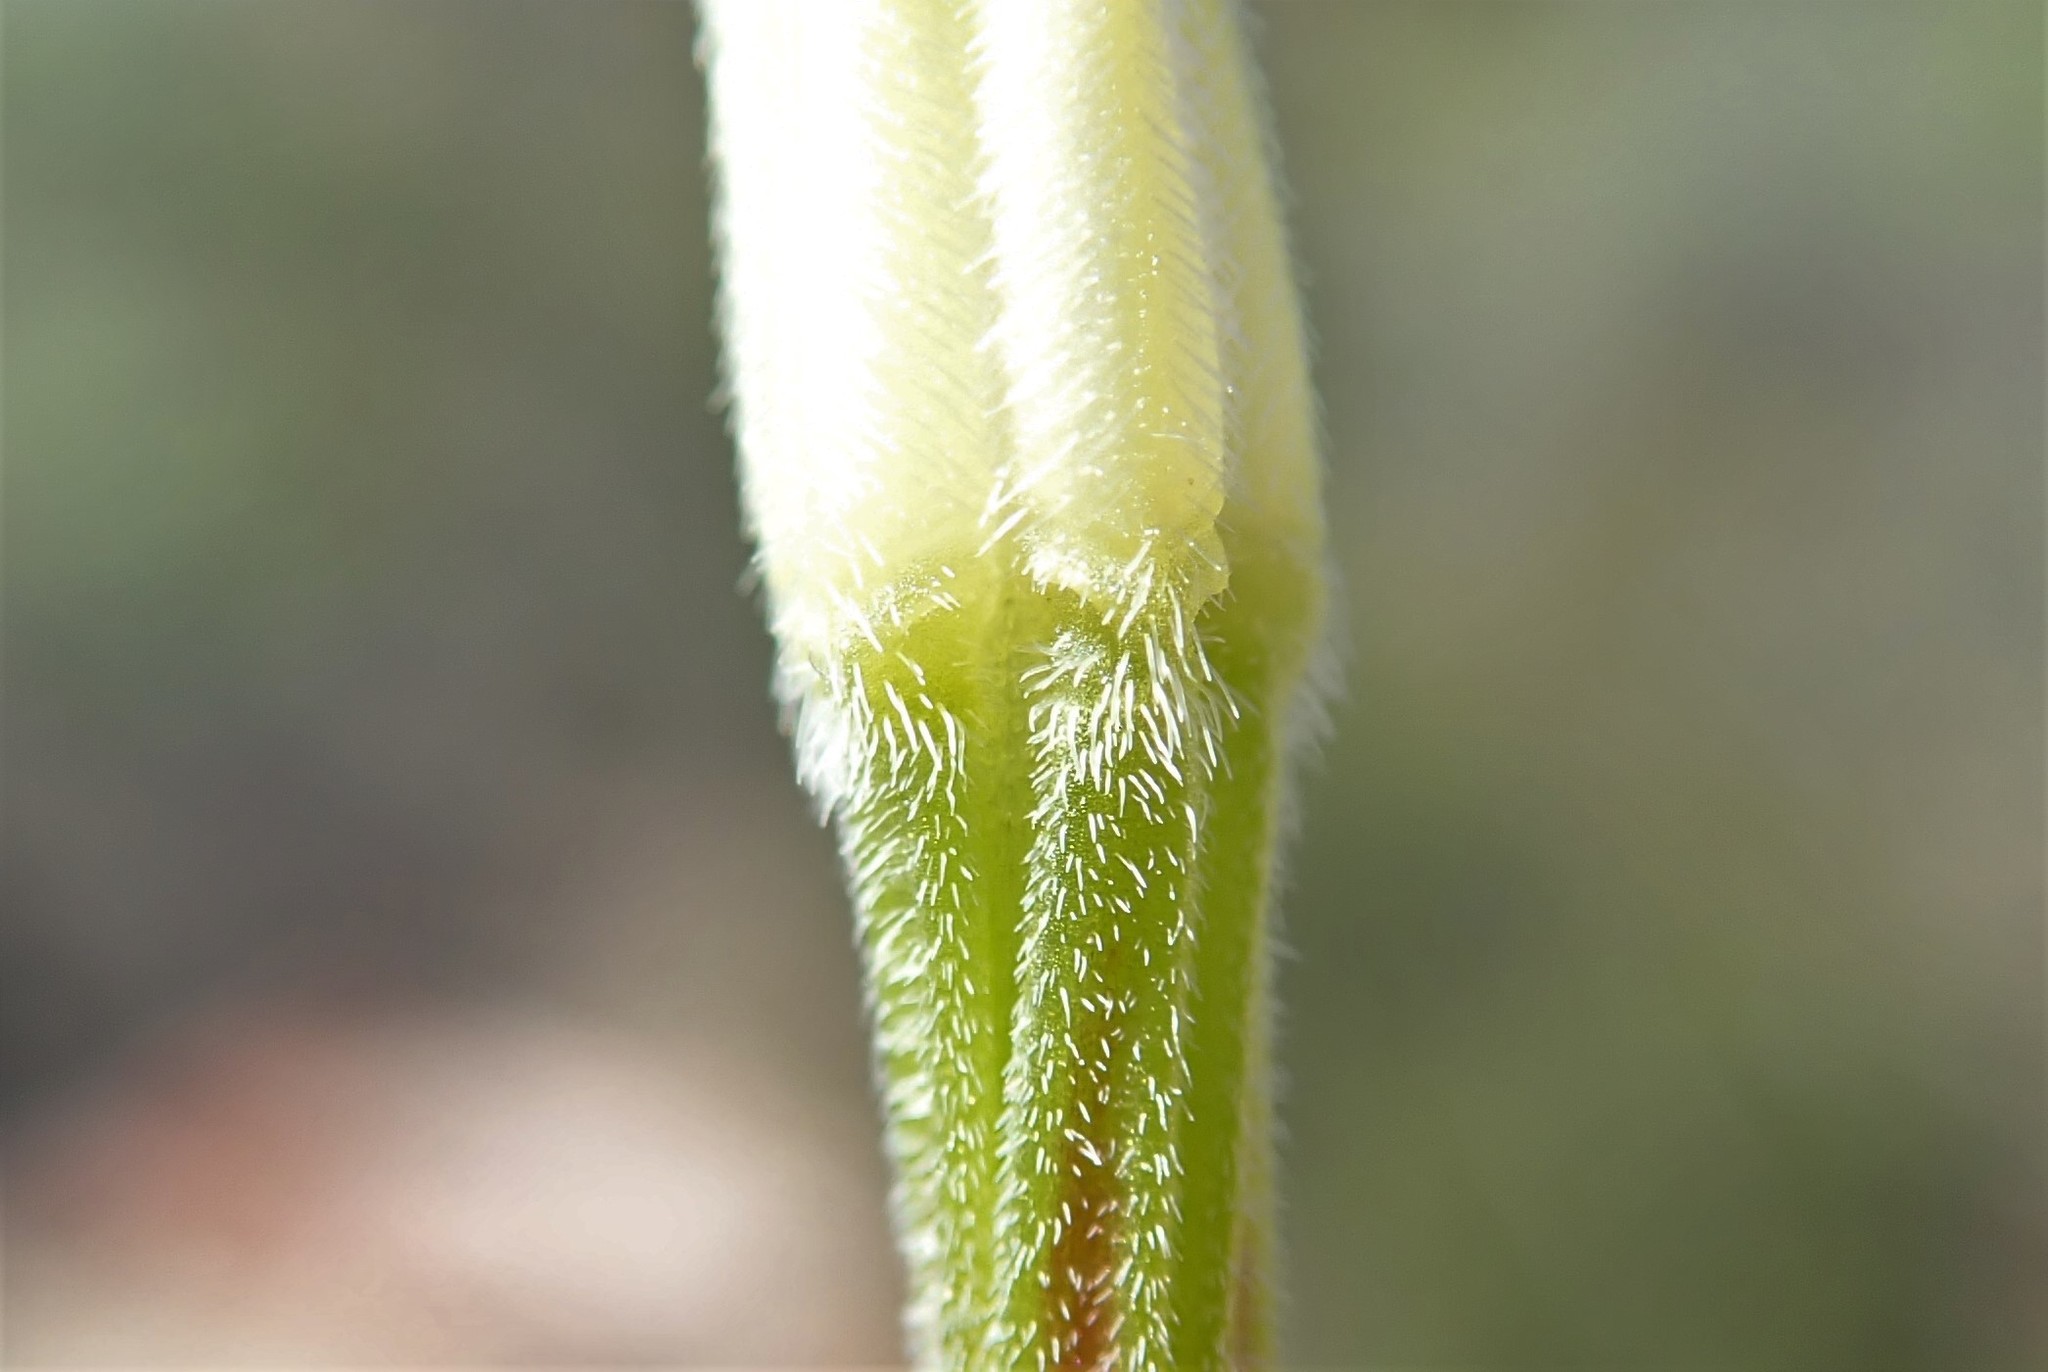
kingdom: Plantae
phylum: Tracheophyta
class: Magnoliopsida
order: Geraniales
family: Geraniaceae
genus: Erodium
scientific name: Erodium brachycarpum
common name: Hairy-pitted stork's-bill
